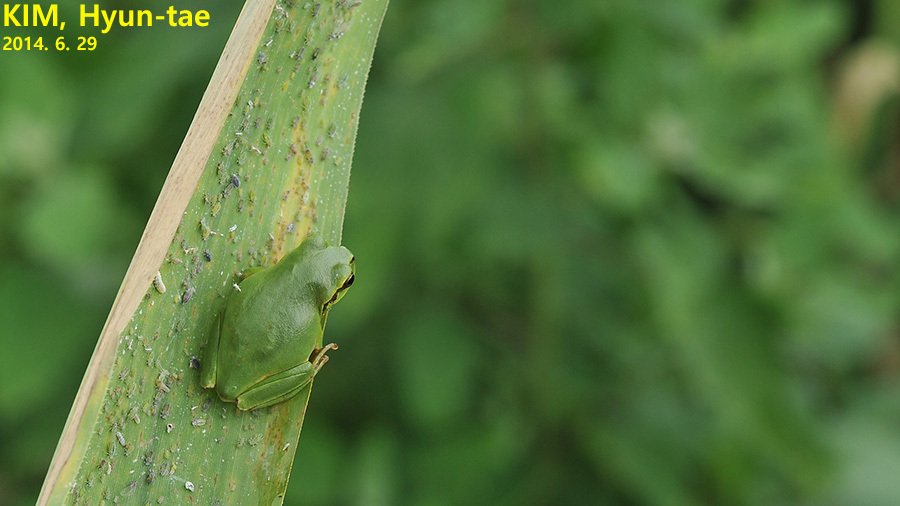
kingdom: Animalia
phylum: Chordata
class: Amphibia
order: Anura
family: Hylidae
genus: Dryophytes
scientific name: Dryophytes immaculatus
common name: North china treefrog
